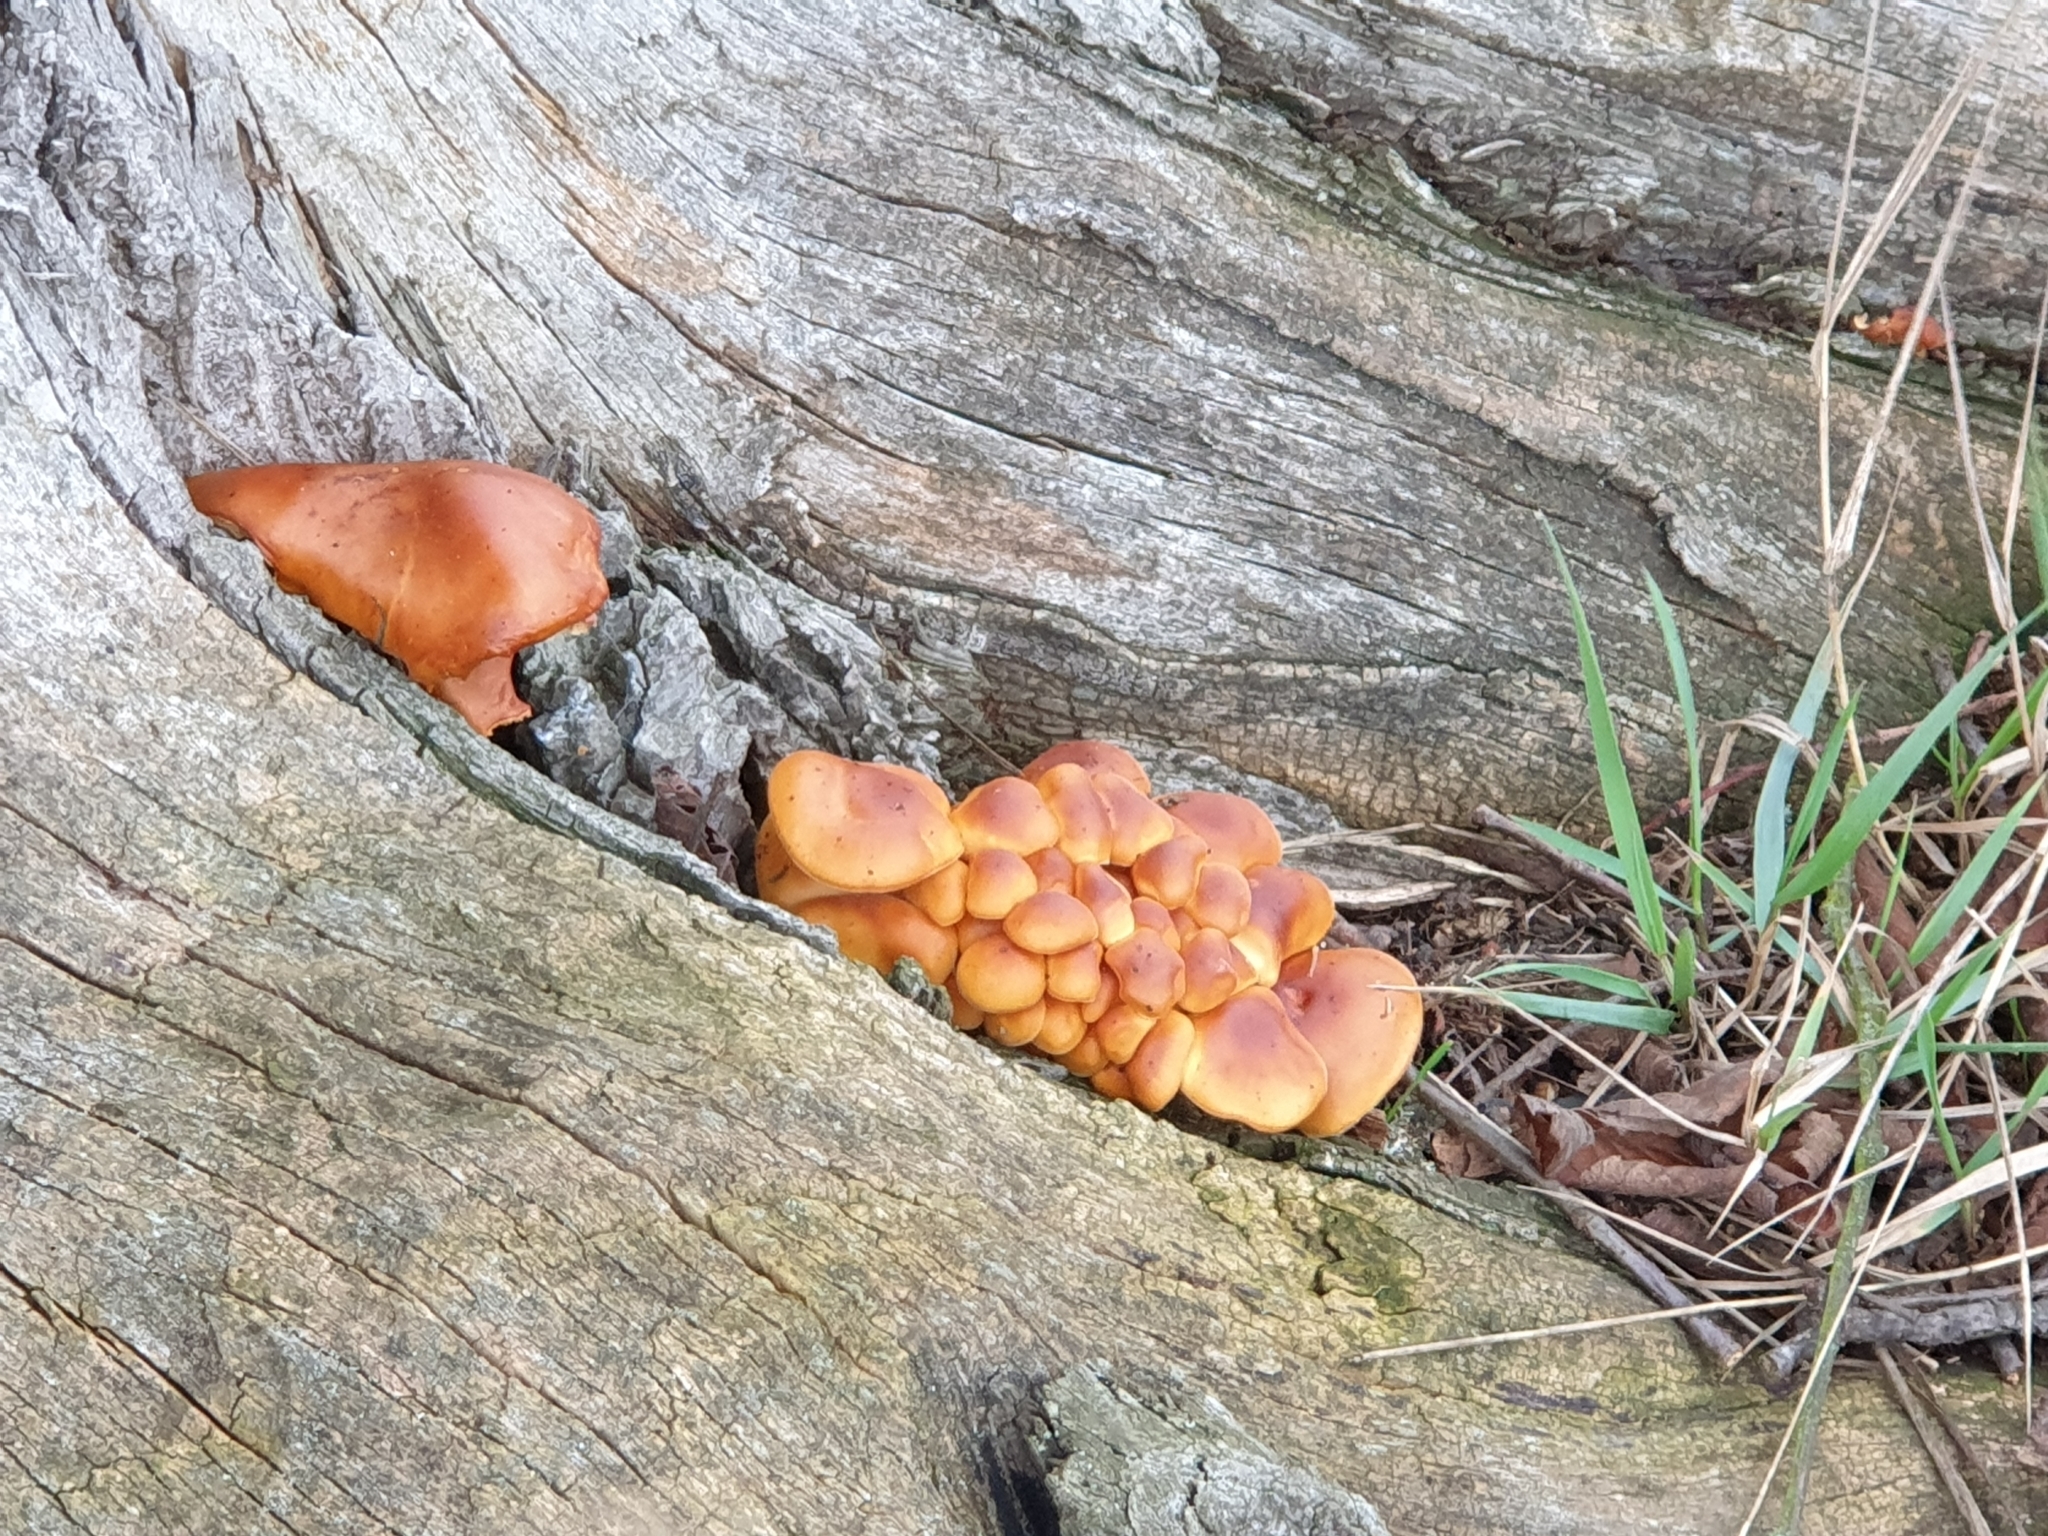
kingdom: Fungi
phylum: Basidiomycota
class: Agaricomycetes
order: Agaricales
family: Physalacriaceae
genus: Flammulina
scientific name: Flammulina
